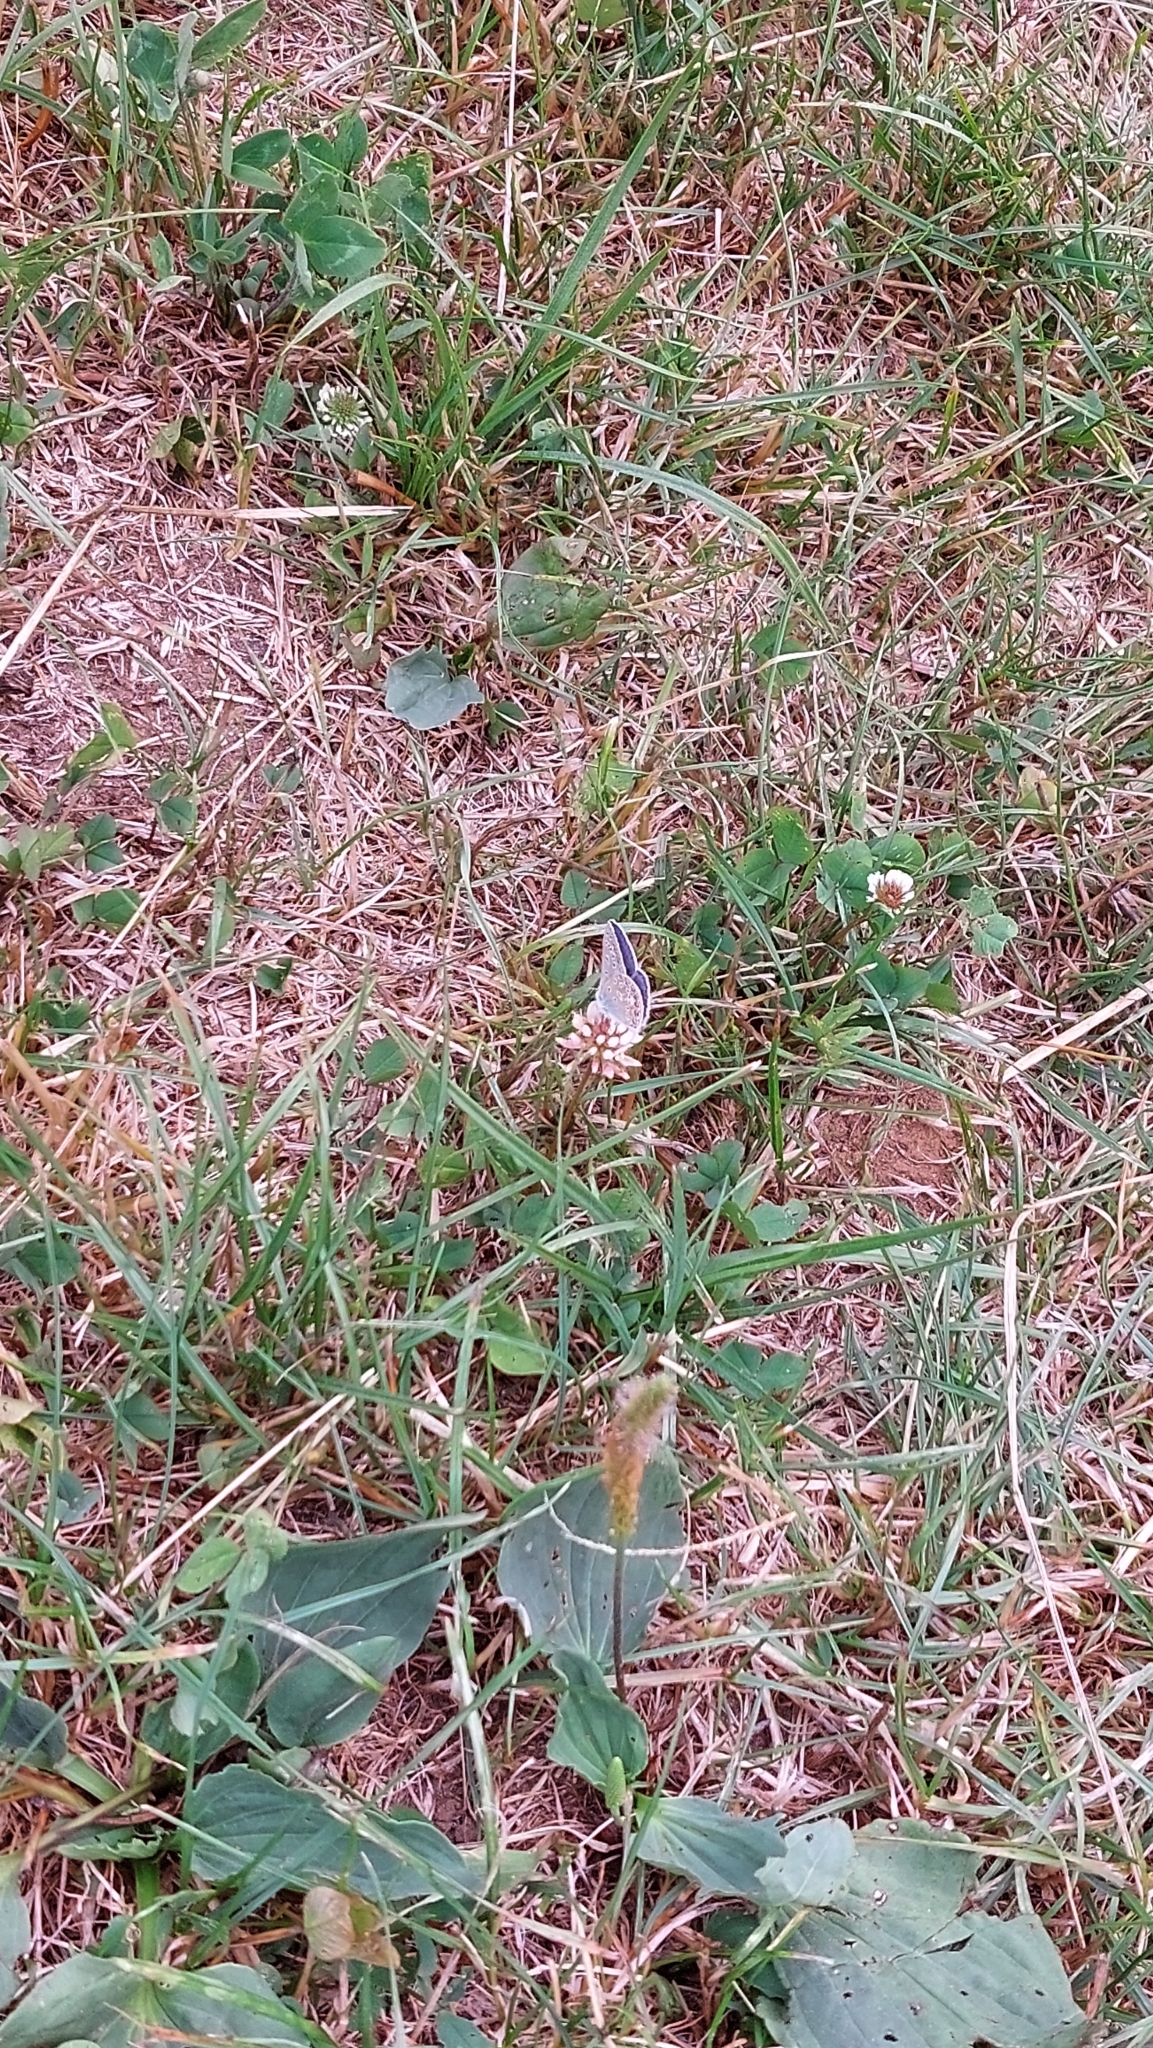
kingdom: Animalia
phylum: Arthropoda
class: Insecta
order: Lepidoptera
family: Lycaenidae
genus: Polyommatus
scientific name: Polyommatus icarus
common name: Common blue
